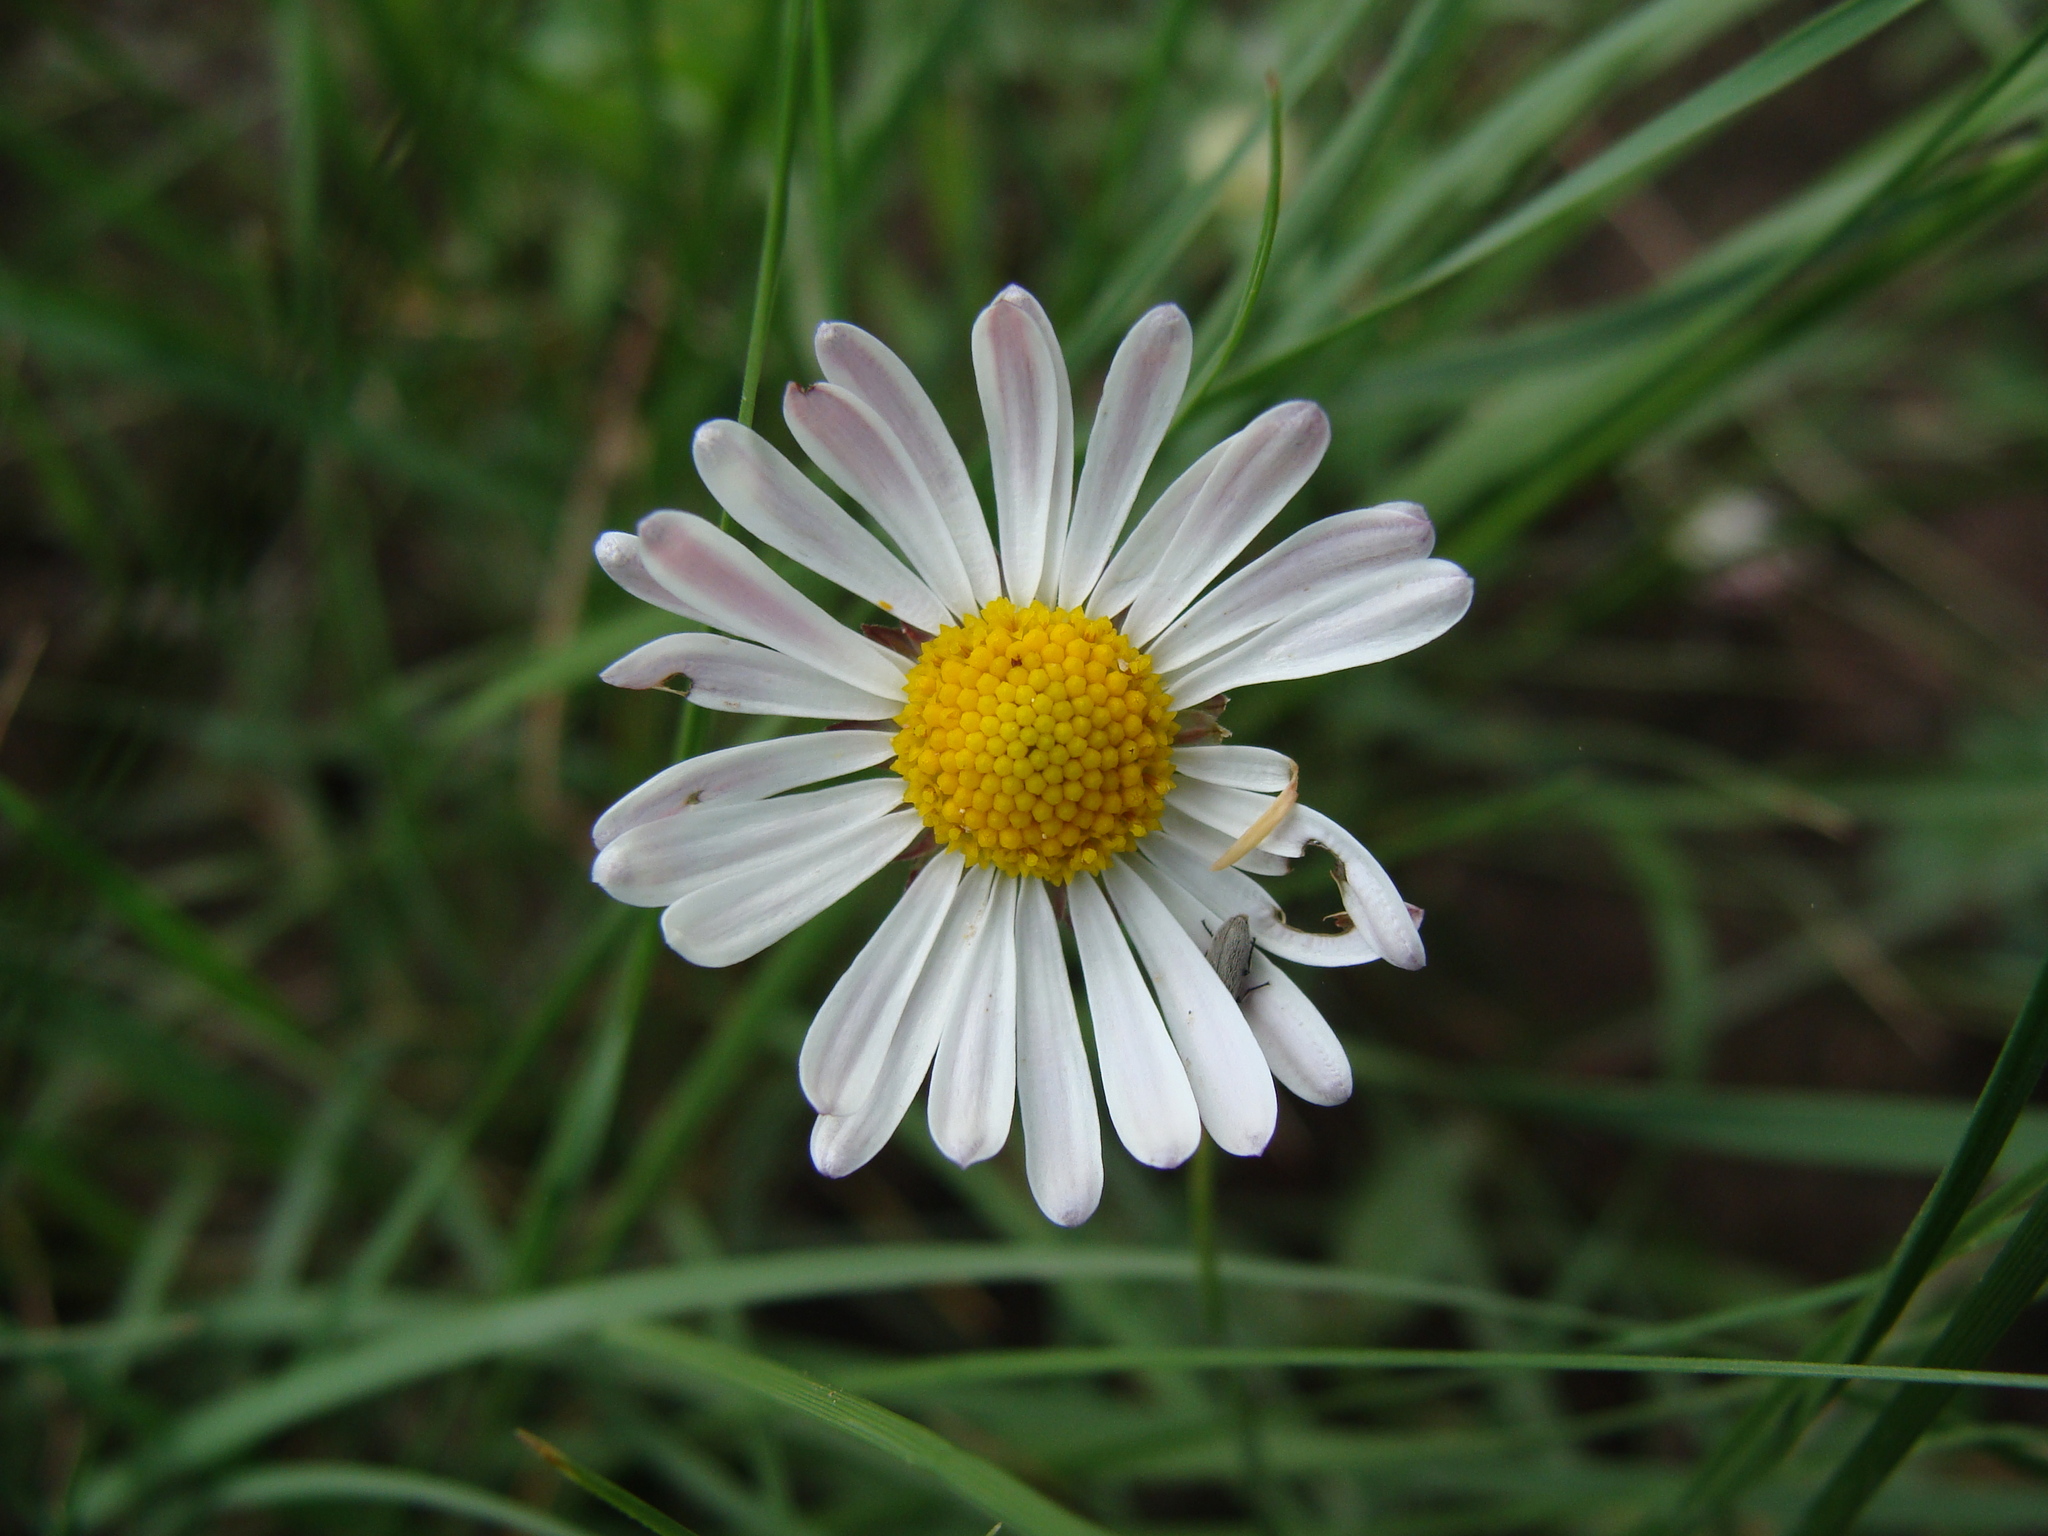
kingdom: Plantae
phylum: Tracheophyta
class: Magnoliopsida
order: Asterales
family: Asteraceae
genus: Aphanostephus
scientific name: Aphanostephus ramosissimus
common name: Plains lazy daisy
